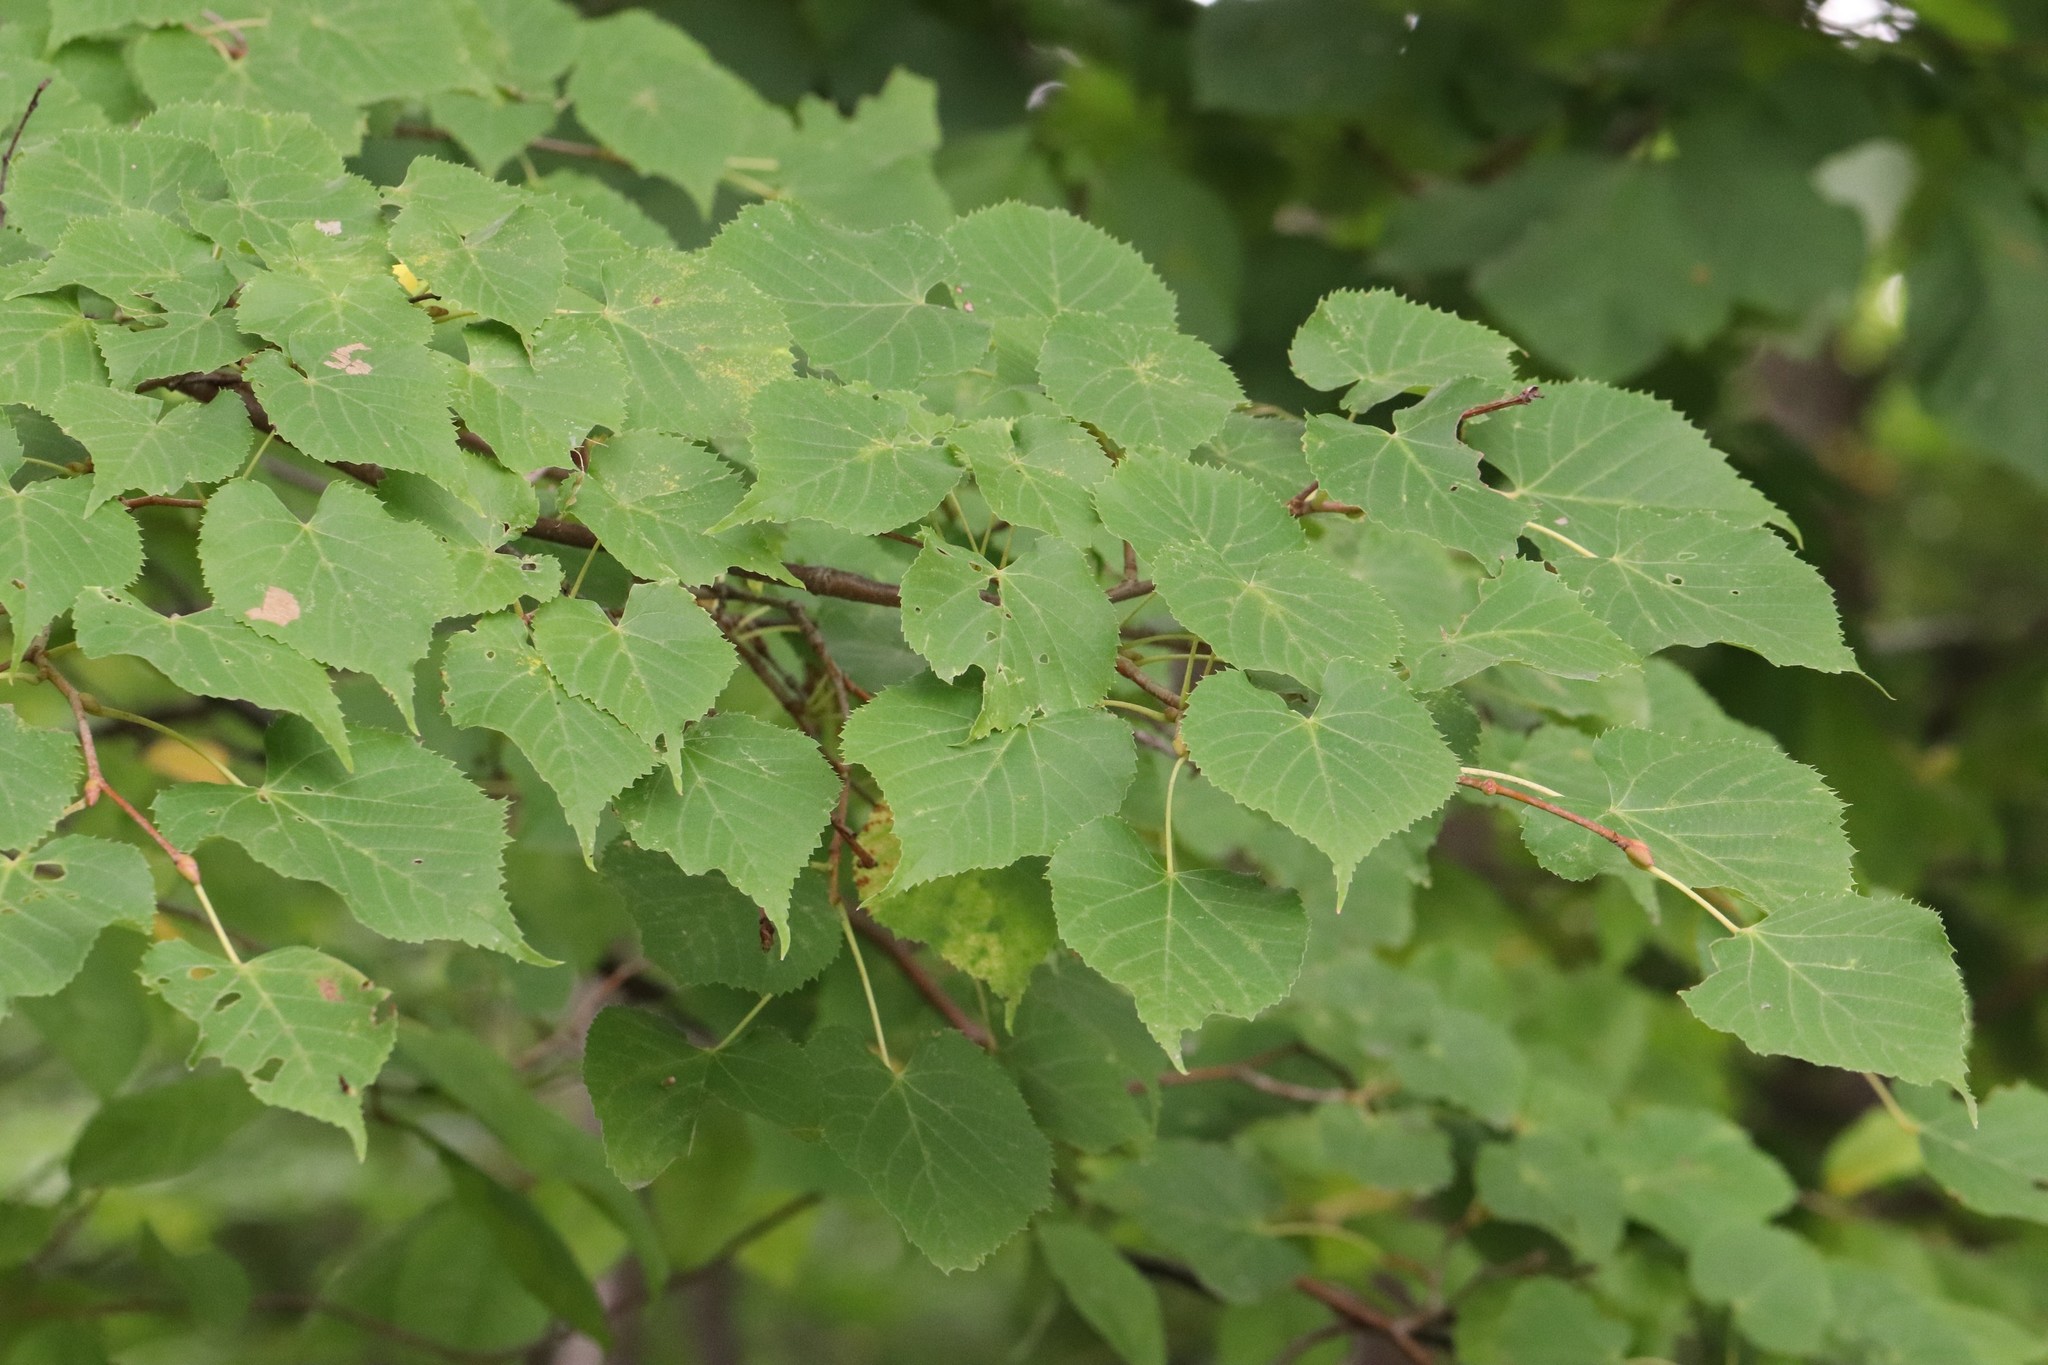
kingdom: Plantae
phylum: Tracheophyta
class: Magnoliopsida
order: Malvales
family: Malvaceae
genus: Tilia
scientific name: Tilia amurensis
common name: Amur lime
